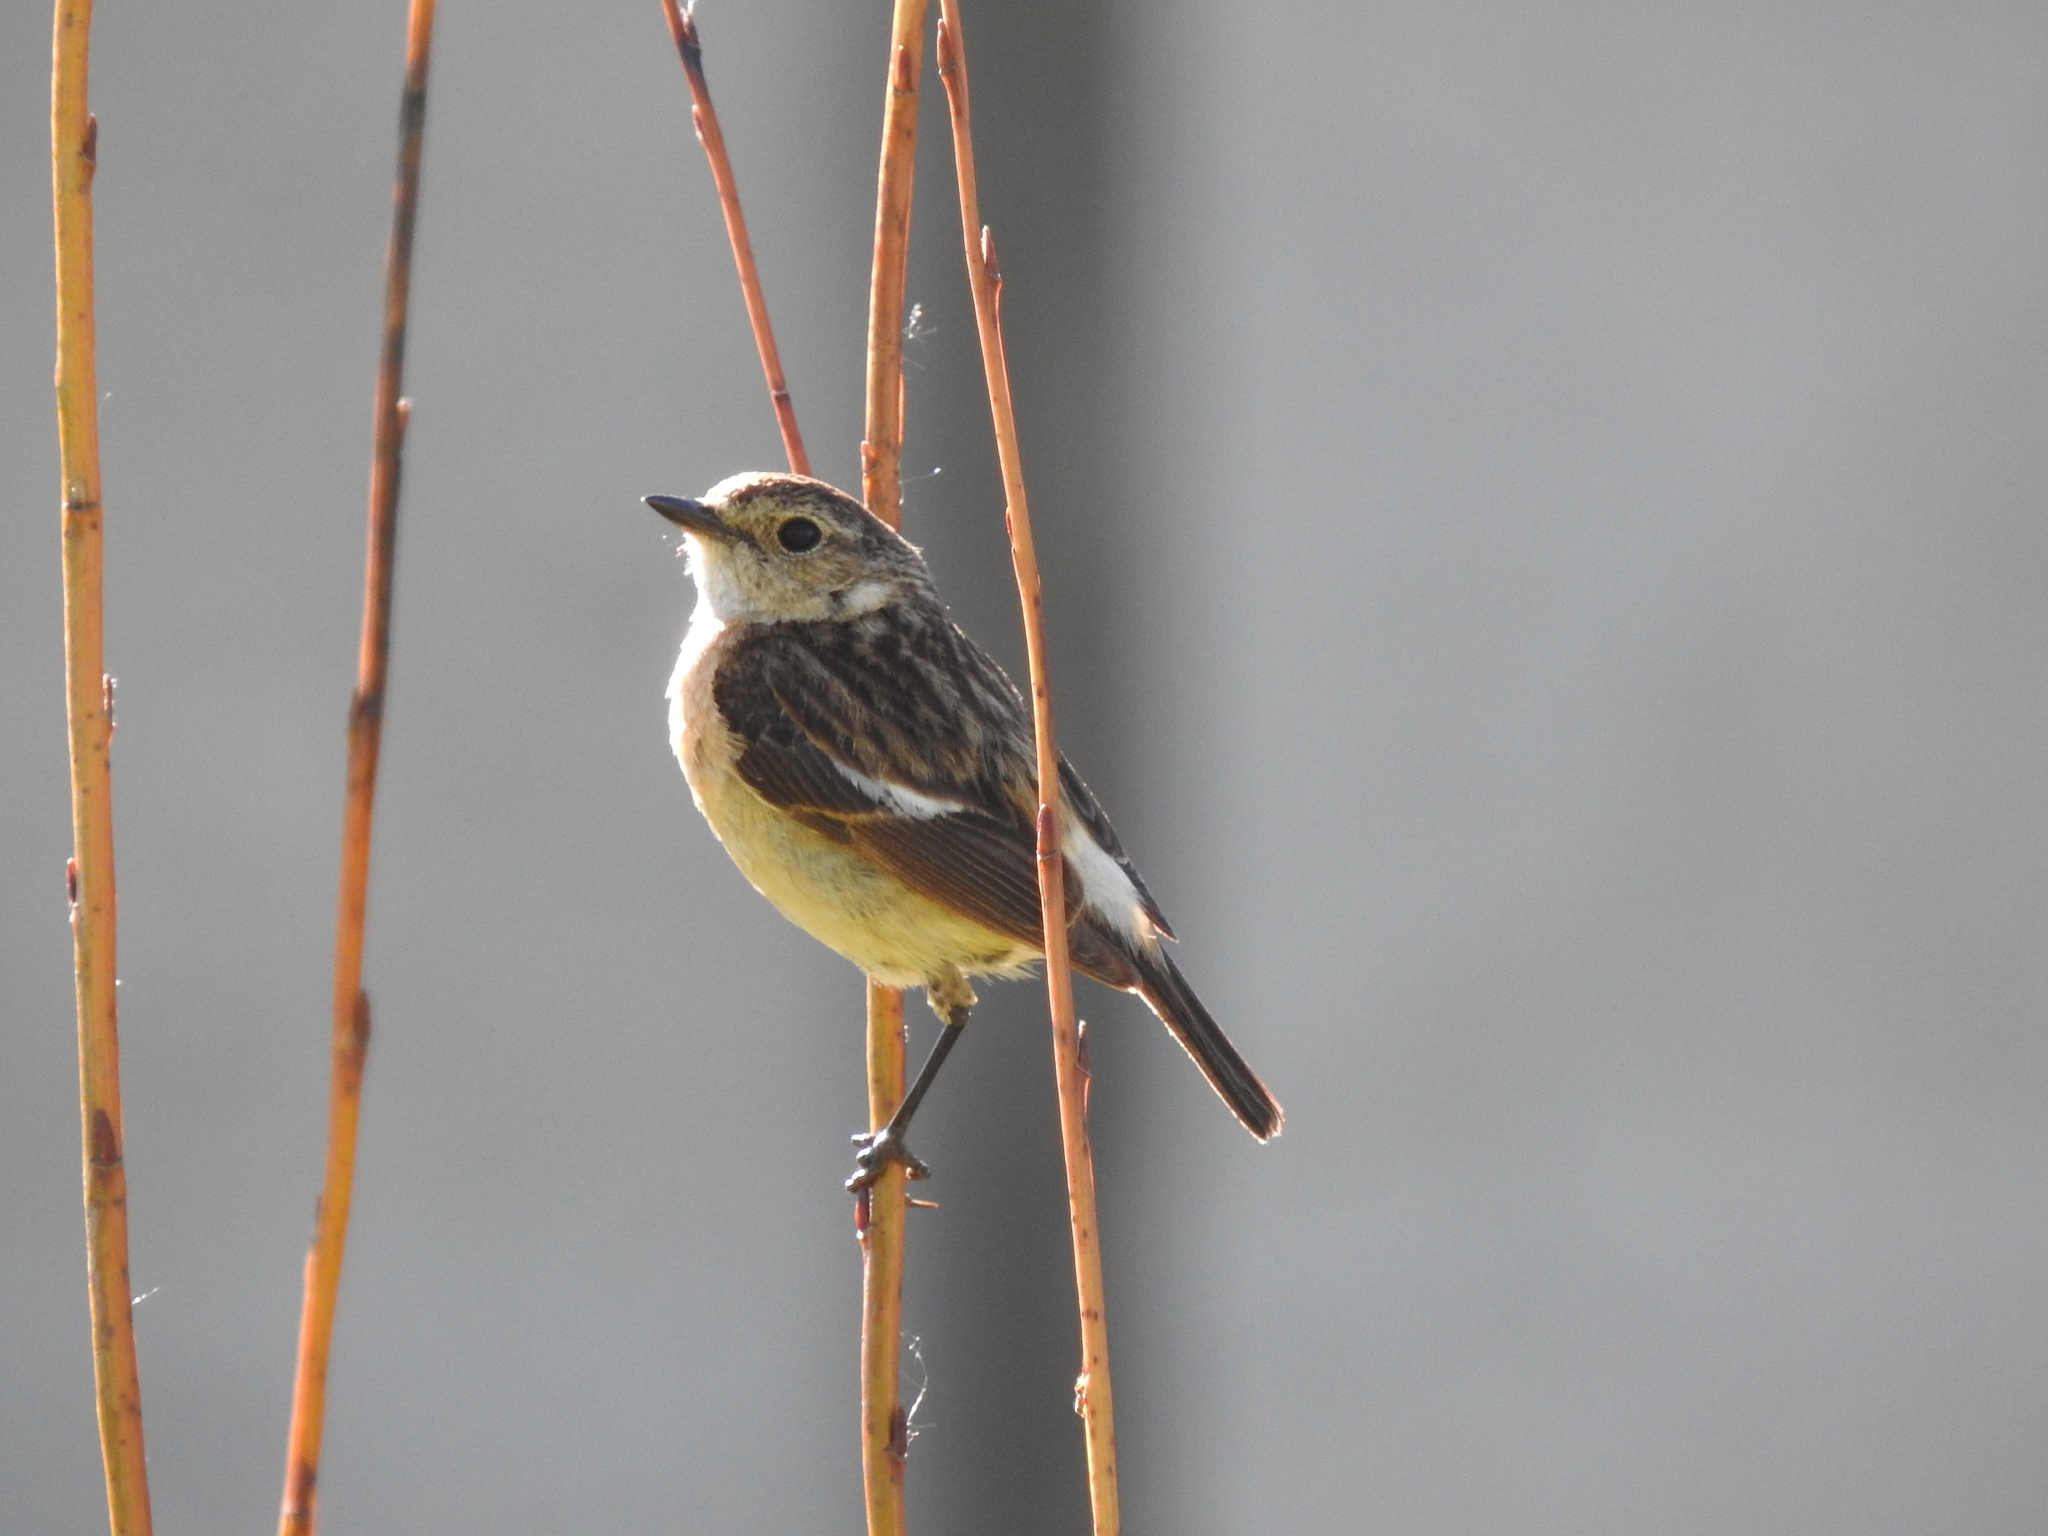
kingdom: Animalia
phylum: Chordata
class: Aves
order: Passeriformes
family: Muscicapidae
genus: Saxicola
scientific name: Saxicola maurus
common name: Siberian stonechat
